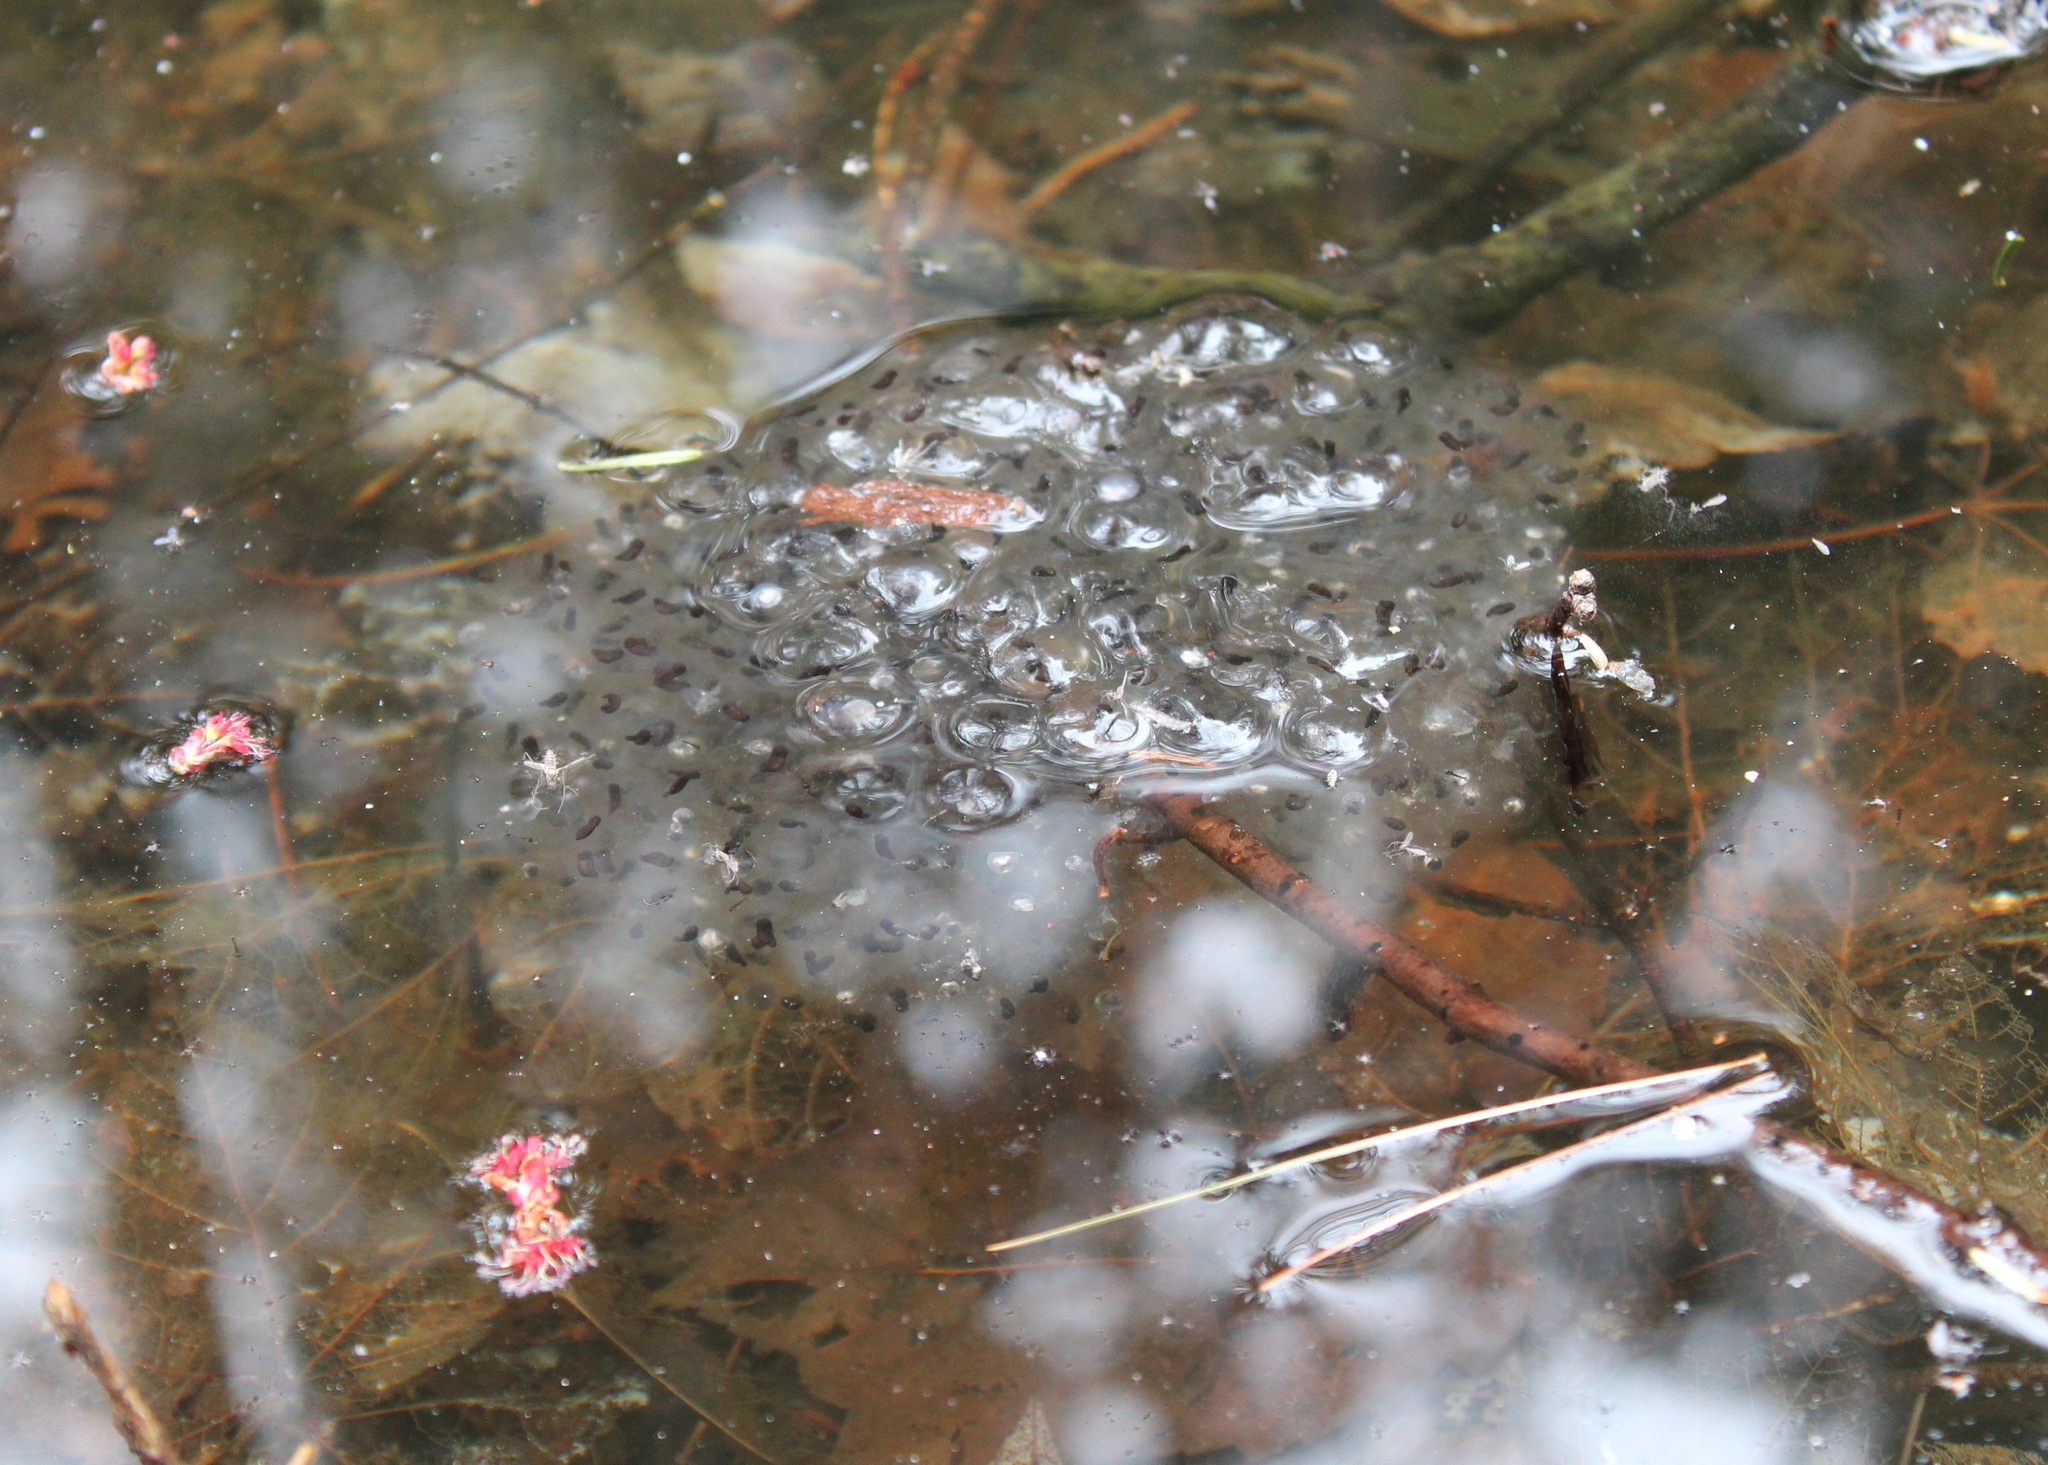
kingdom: Animalia
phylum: Chordata
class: Amphibia
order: Anura
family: Ranidae
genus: Lithobates
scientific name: Lithobates sylvaticus
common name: Wood frog
